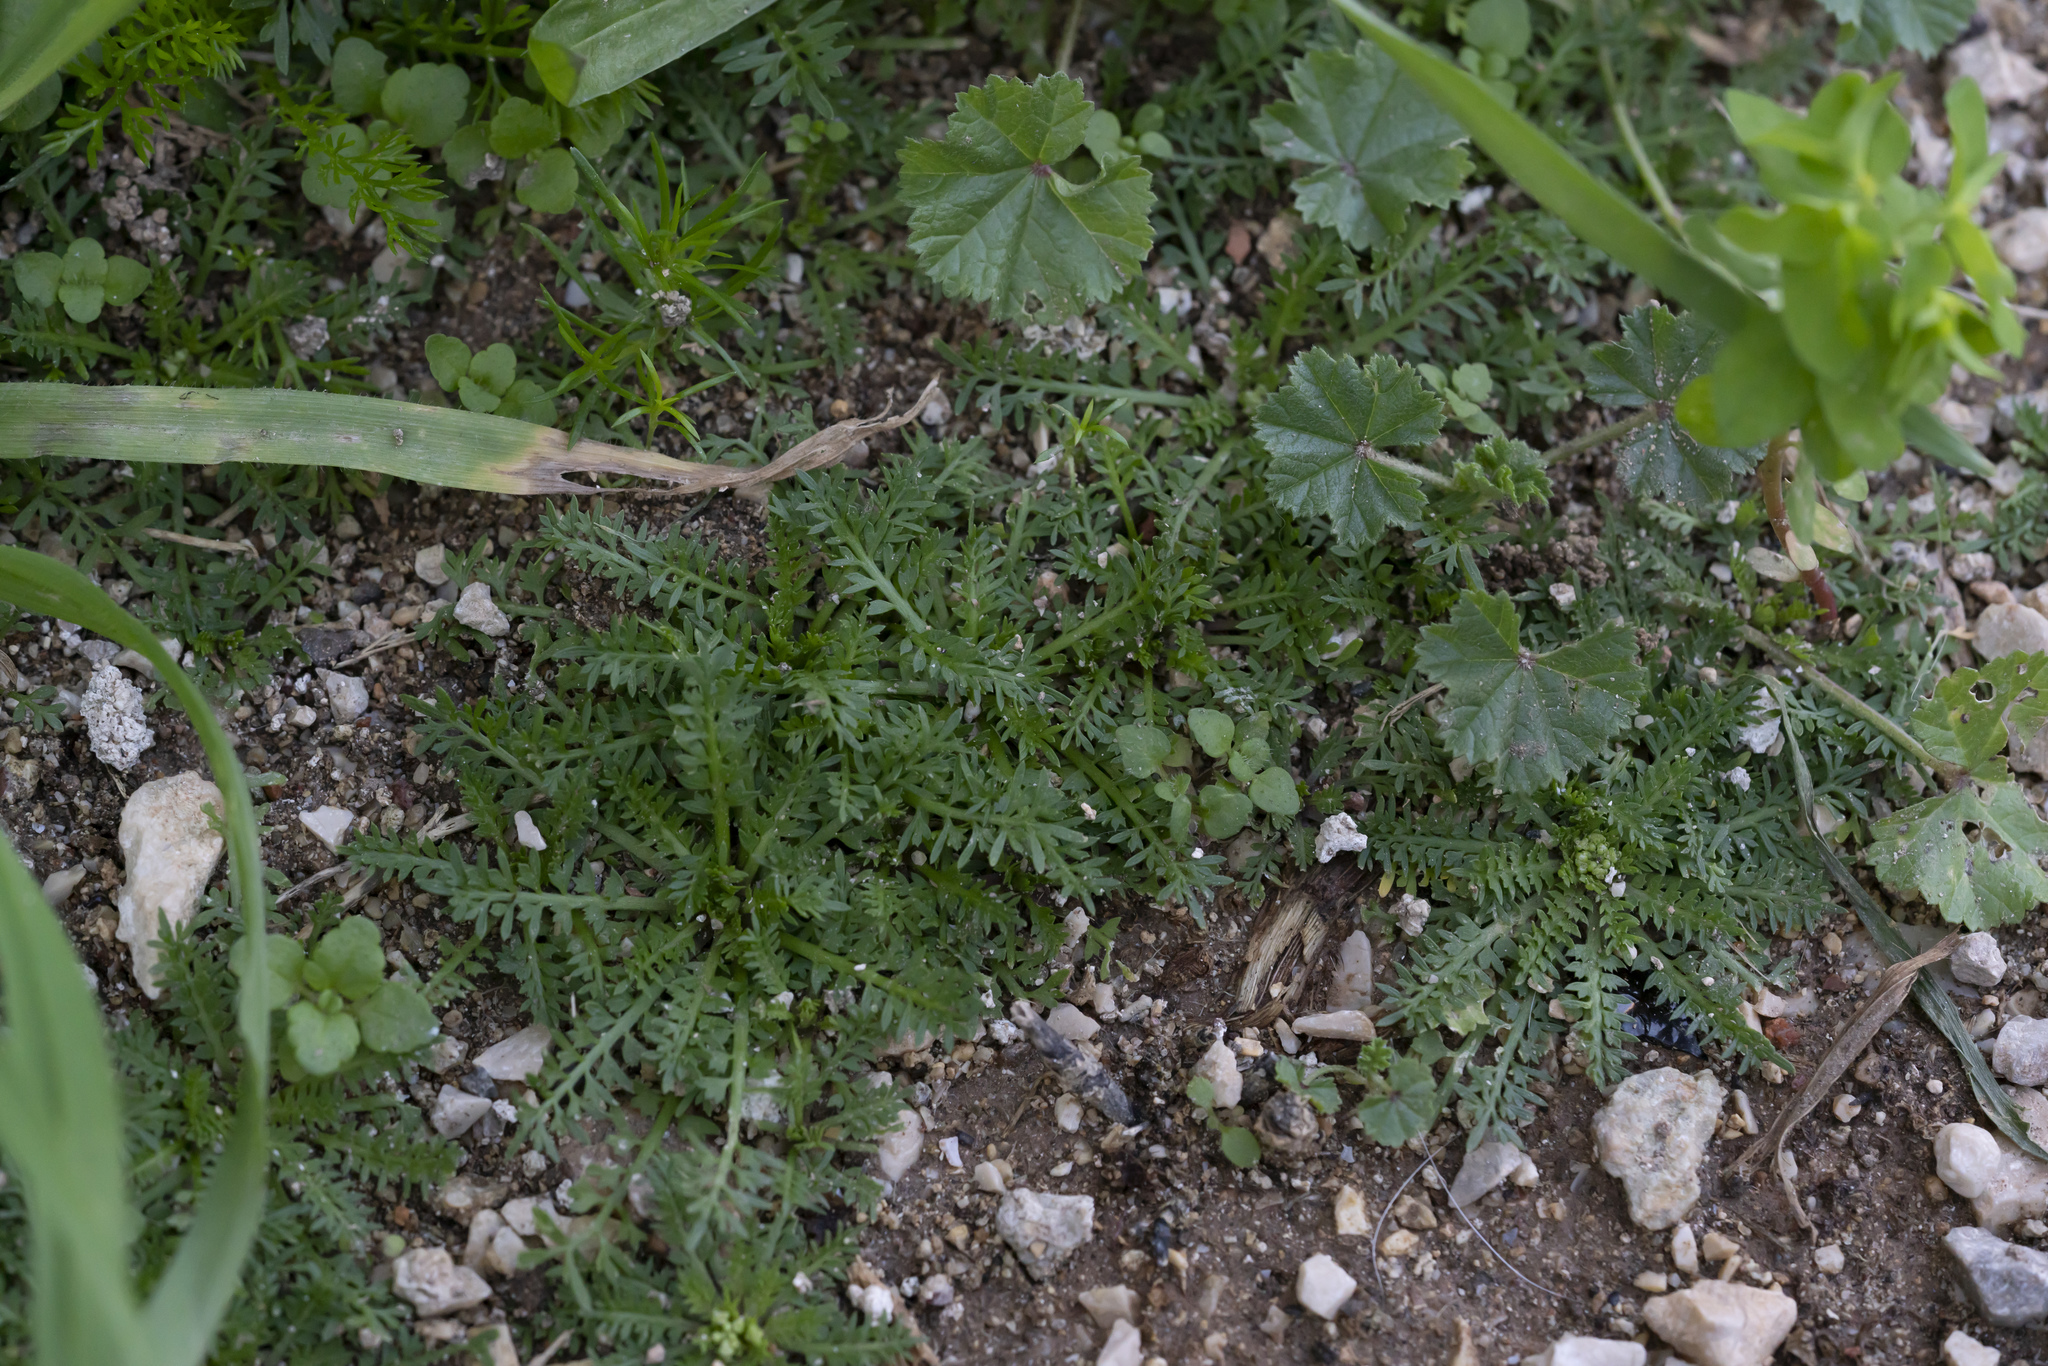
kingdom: Plantae
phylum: Tracheophyta
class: Magnoliopsida
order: Brassicales
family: Brassicaceae
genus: Lepidium
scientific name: Lepidium
